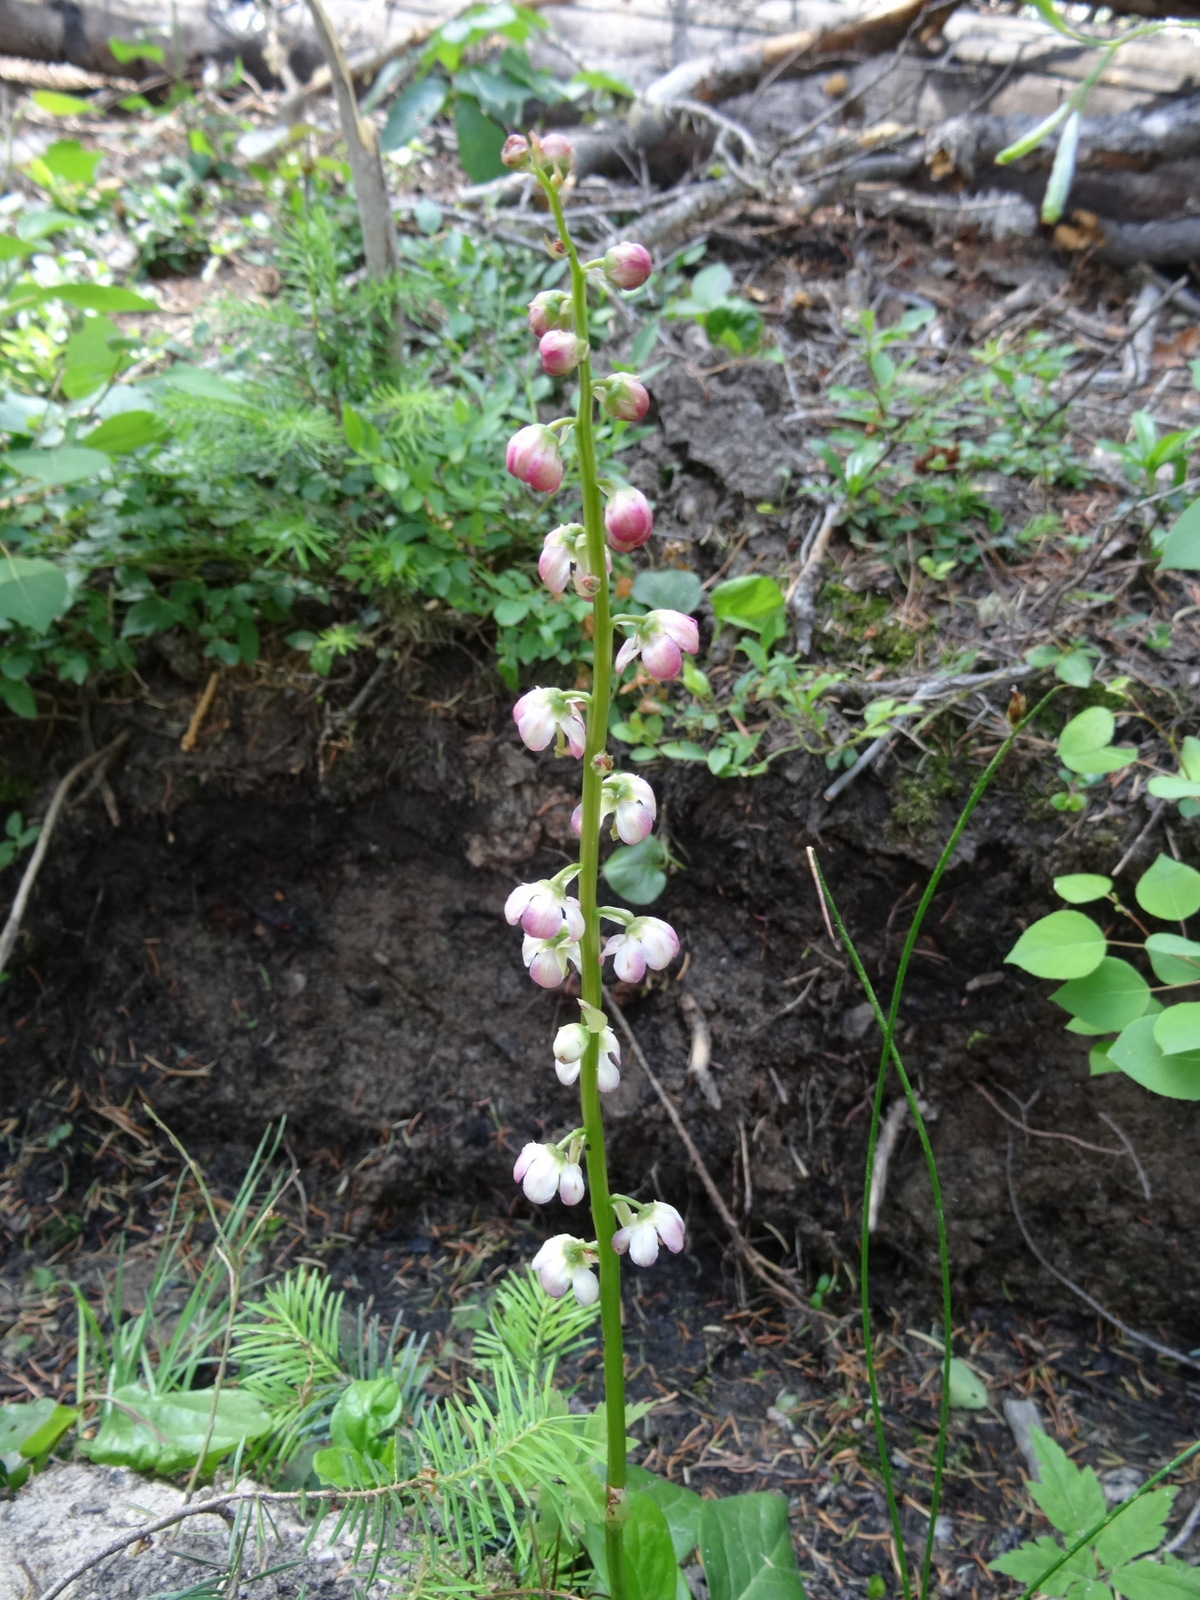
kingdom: Plantae
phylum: Tracheophyta
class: Magnoliopsida
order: Ericales
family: Ericaceae
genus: Pyrola
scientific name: Pyrola asarifolia
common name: Bog wintergreen
